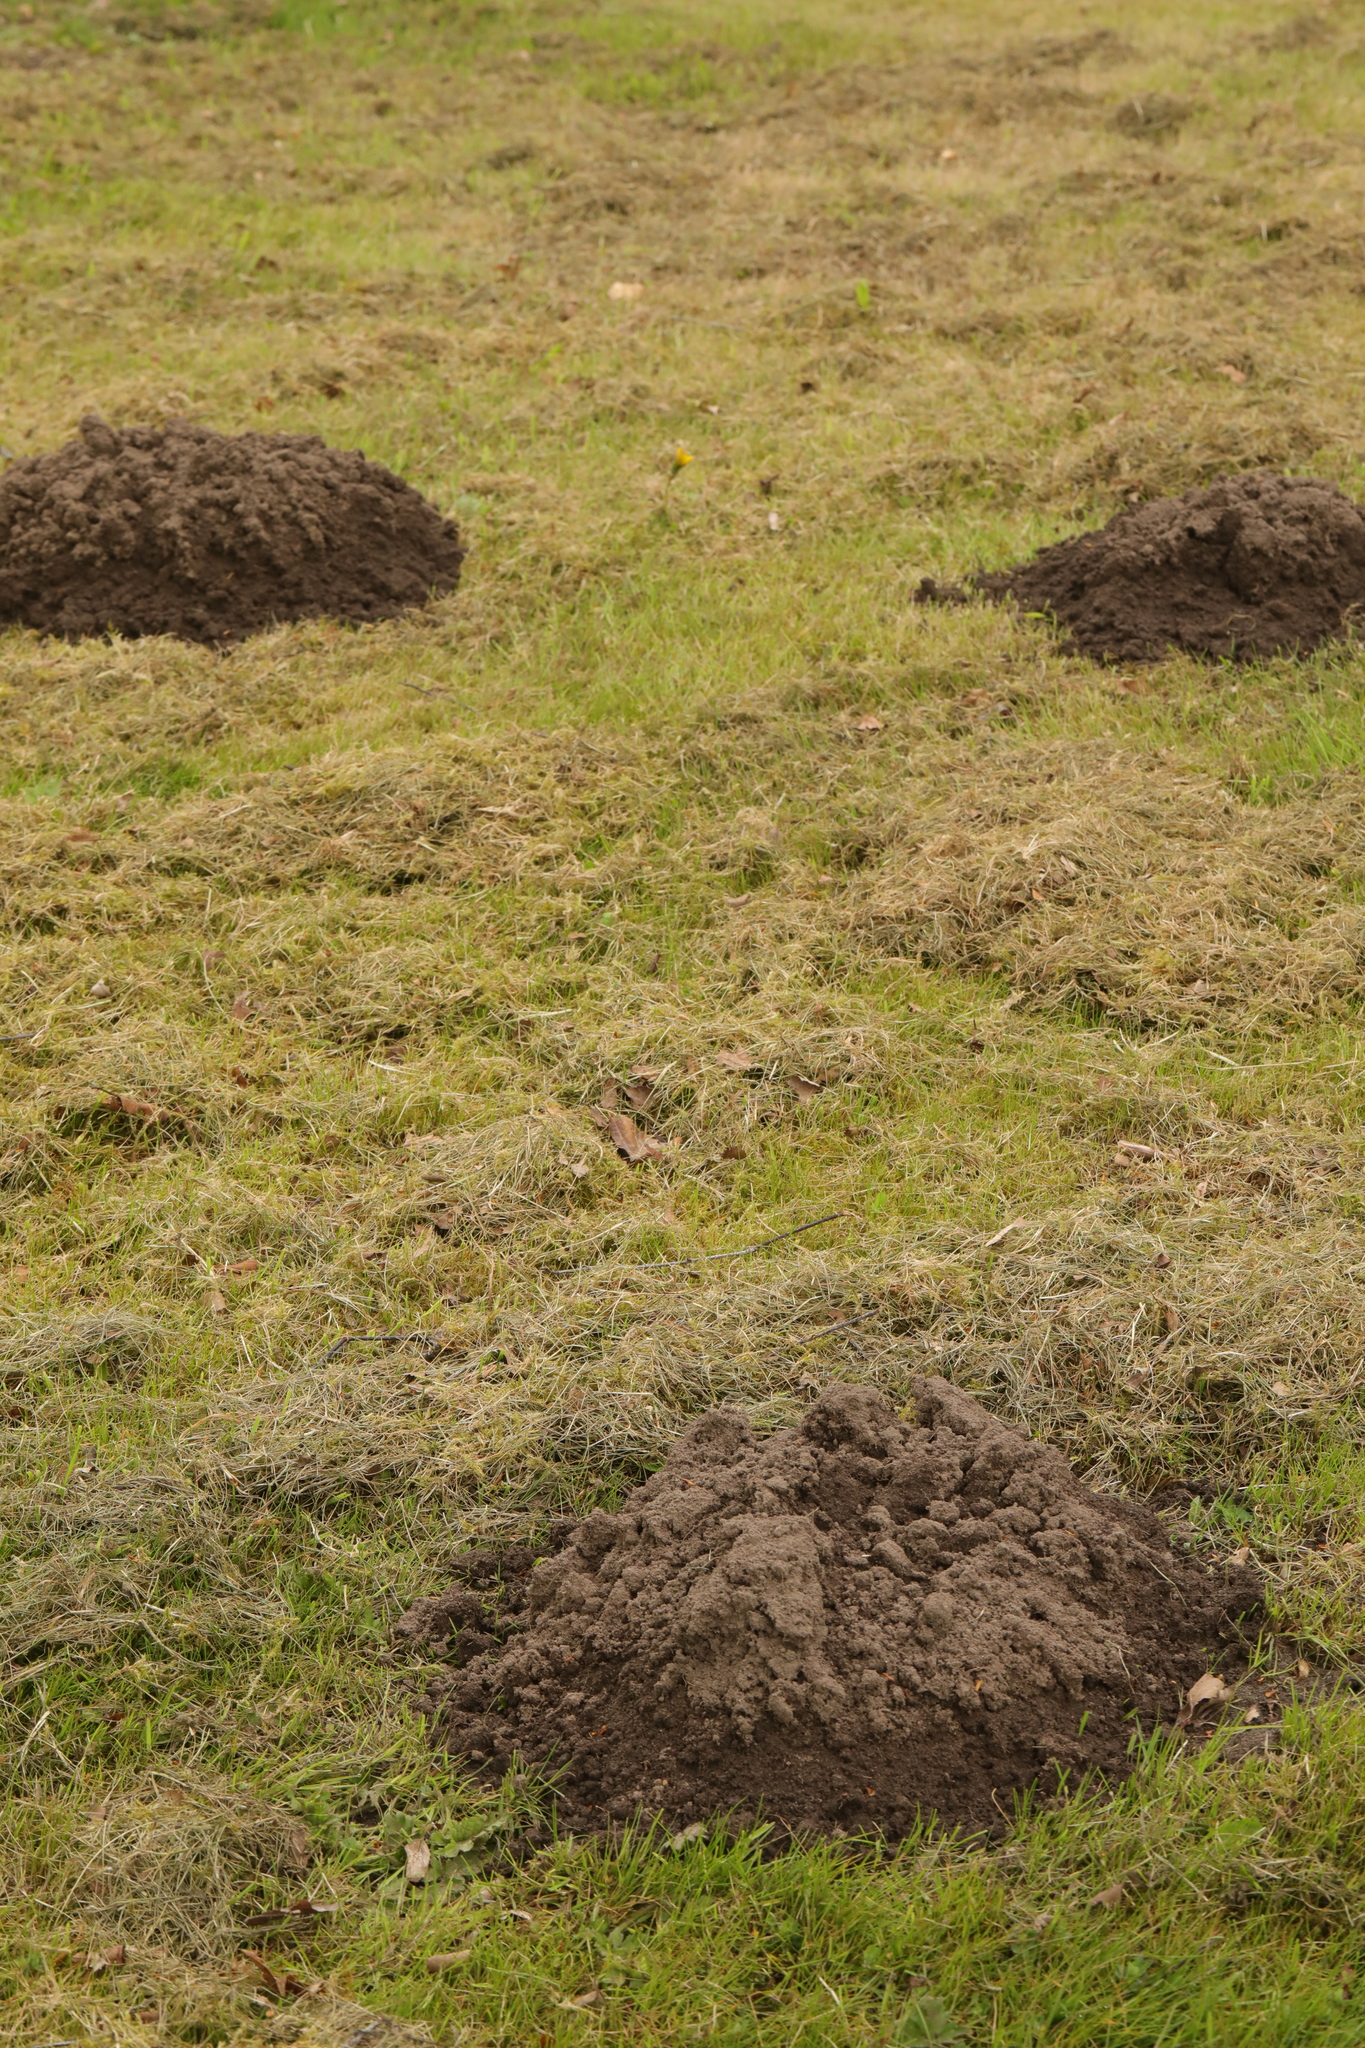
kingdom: Animalia
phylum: Chordata
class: Mammalia
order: Soricomorpha
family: Talpidae
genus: Talpa
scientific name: Talpa europaea
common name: European mole
